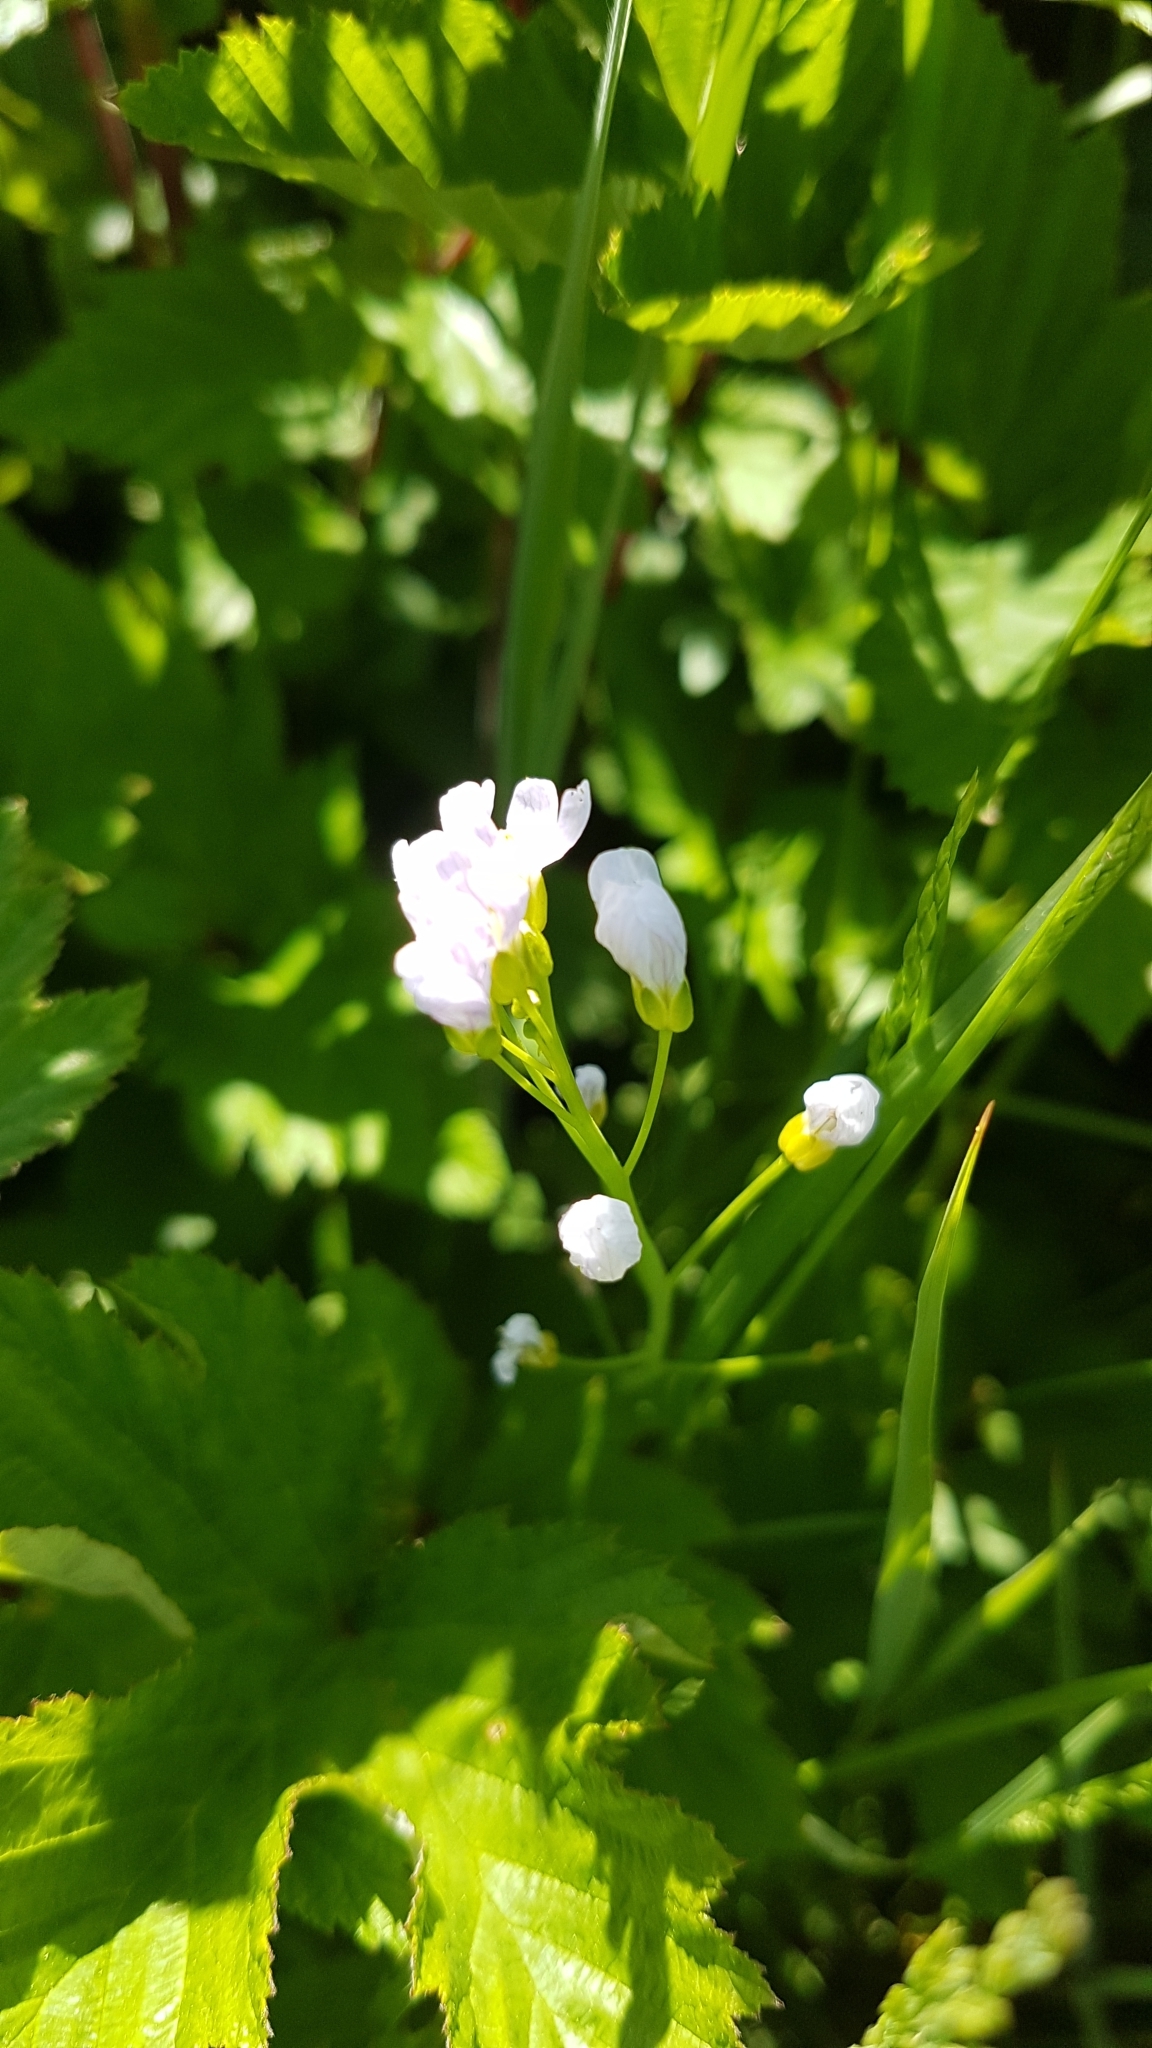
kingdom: Plantae
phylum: Tracheophyta
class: Magnoliopsida
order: Brassicales
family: Brassicaceae
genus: Cardamine
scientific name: Cardamine pratensis
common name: Cuckoo flower
